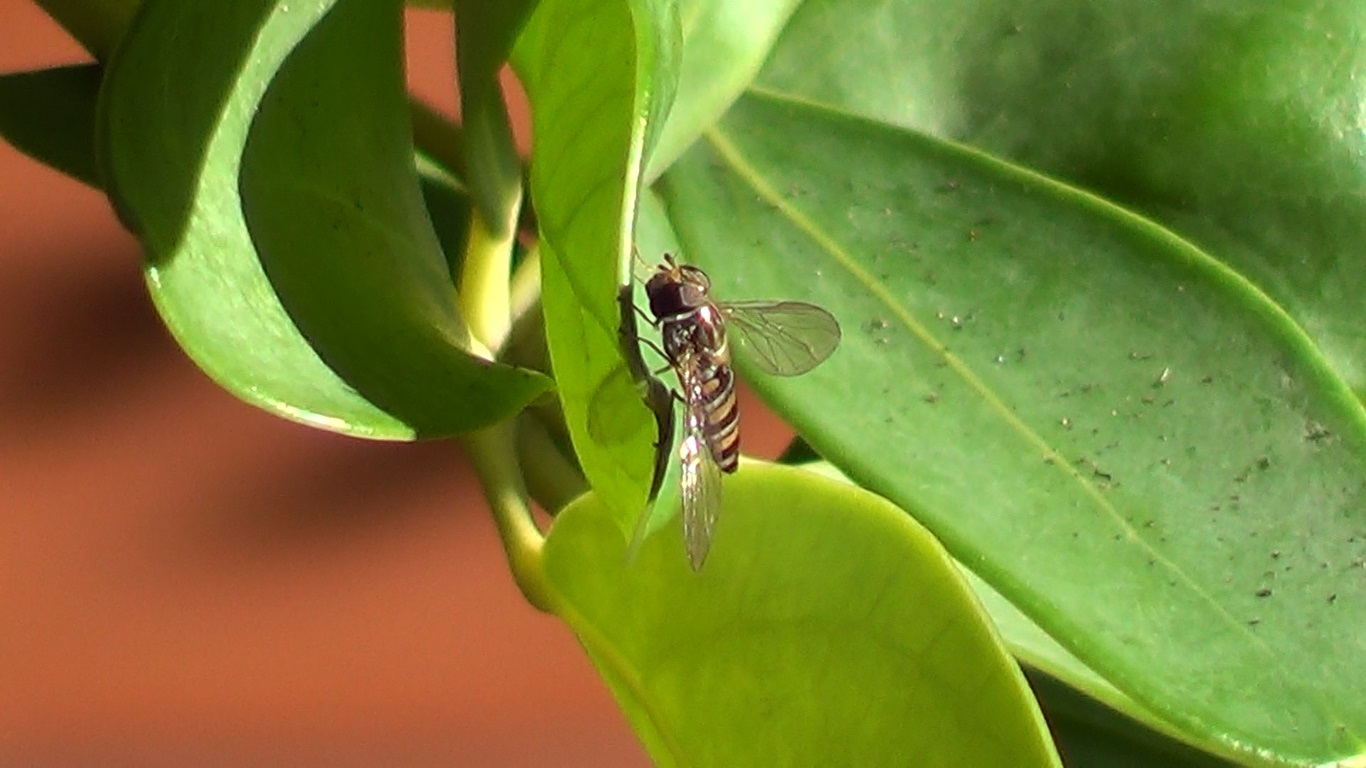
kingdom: Animalia
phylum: Arthropoda
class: Insecta
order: Diptera
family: Syrphidae
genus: Episyrphus
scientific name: Episyrphus balteatus
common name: Marmalade hoverfly
